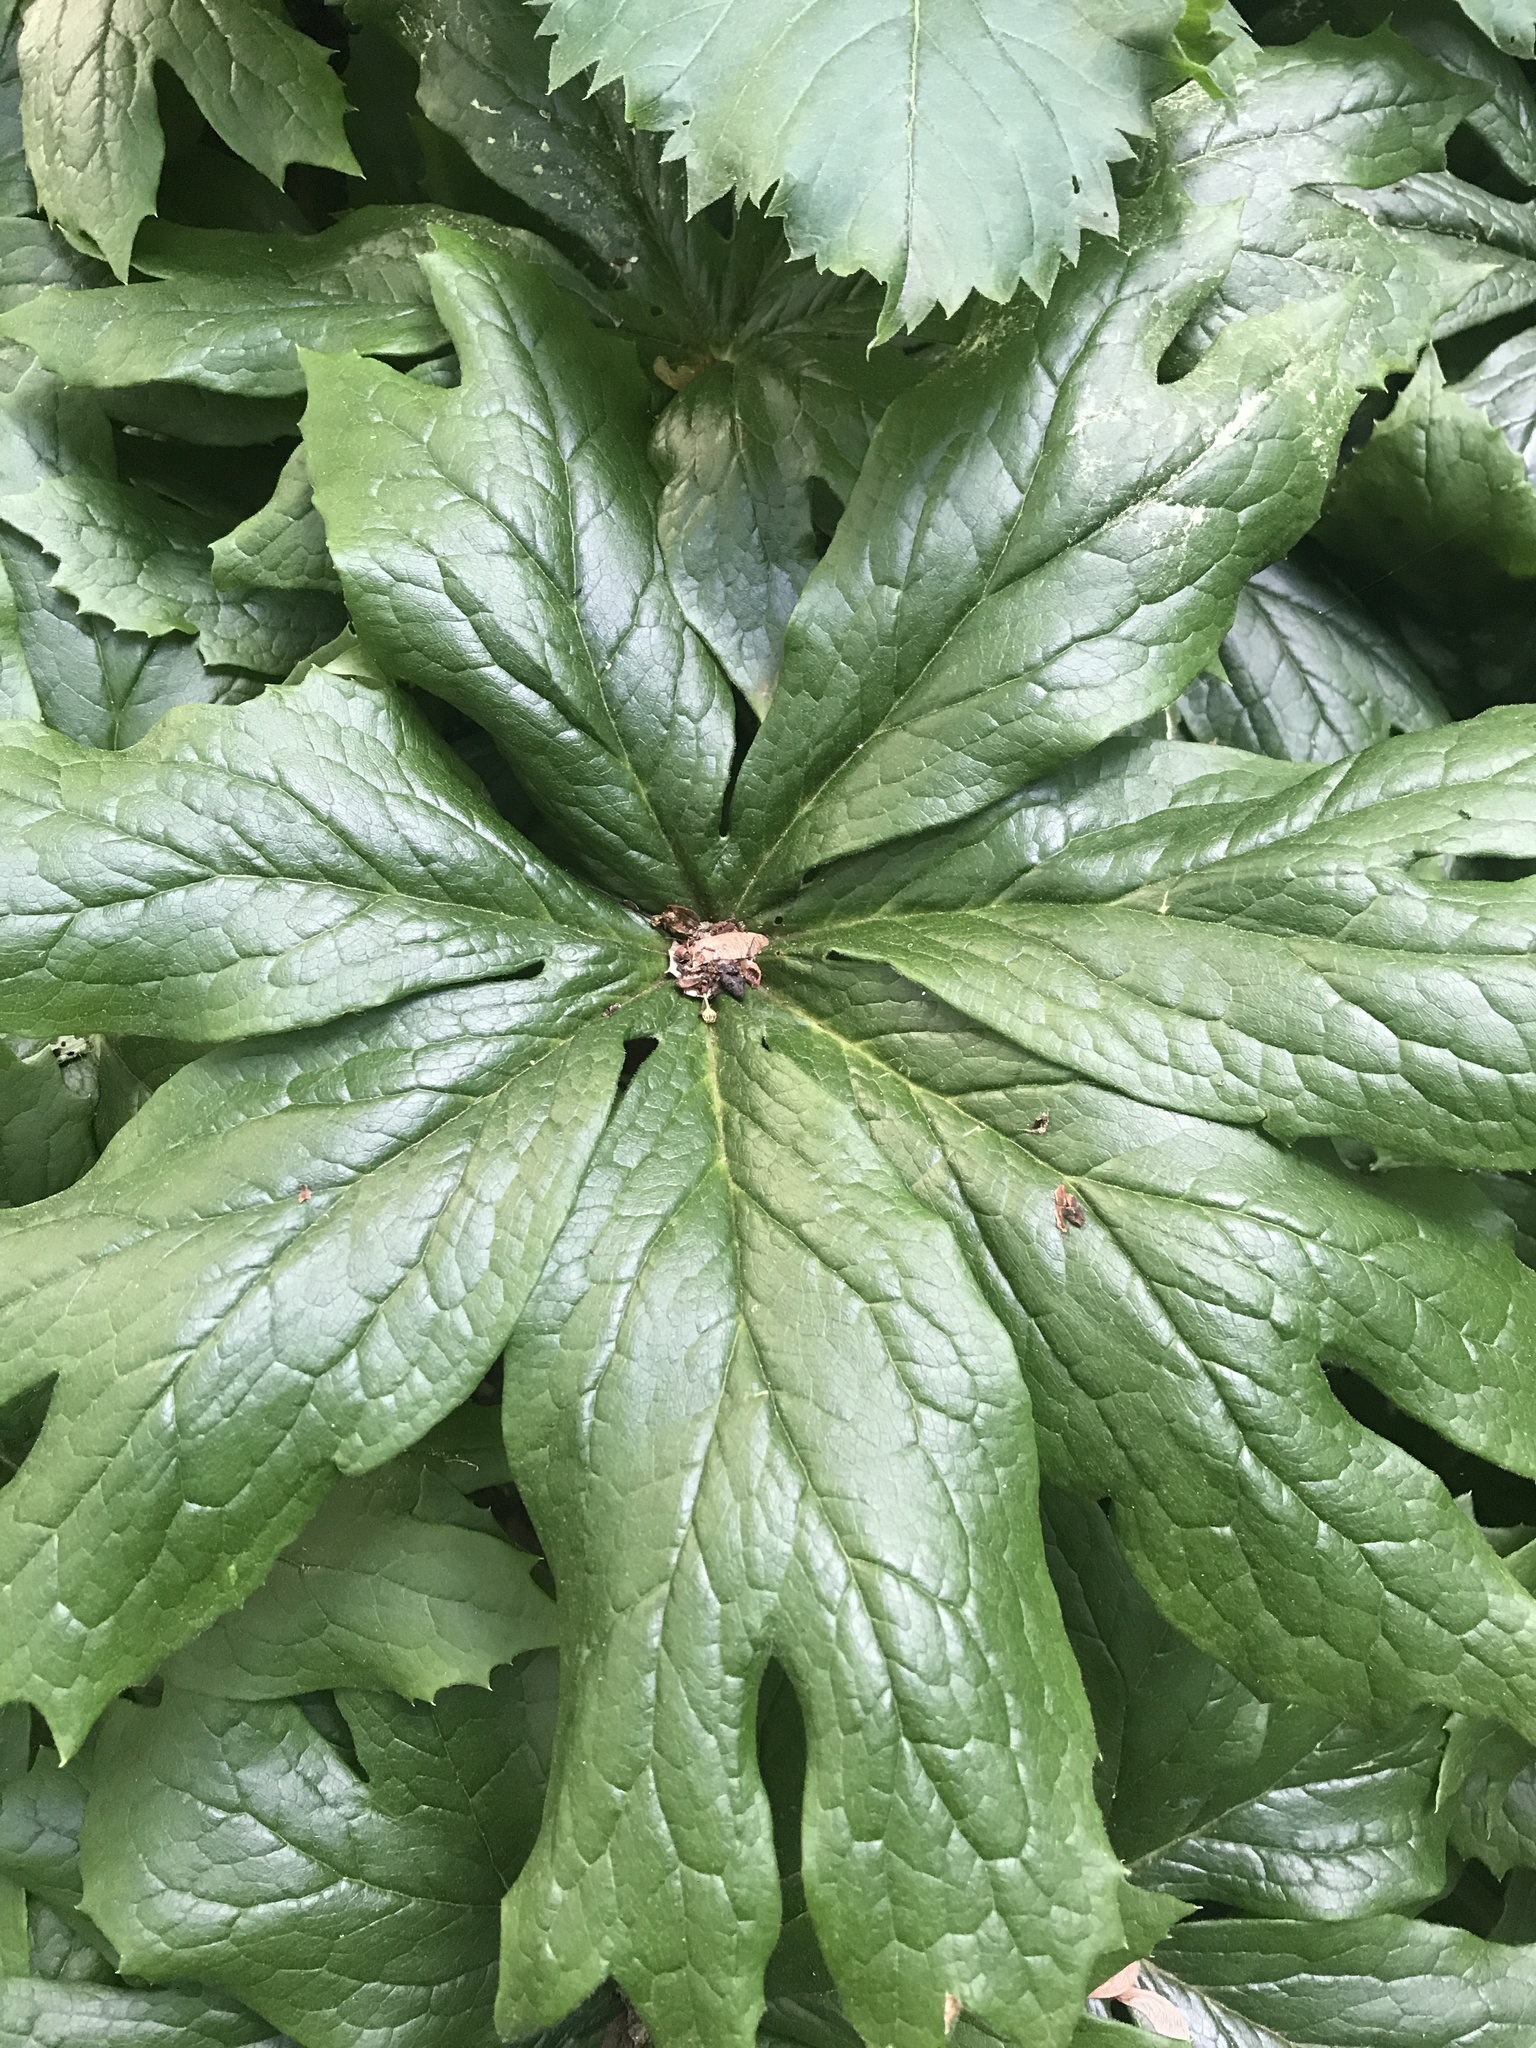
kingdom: Plantae
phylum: Tracheophyta
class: Magnoliopsida
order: Ranunculales
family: Berberidaceae
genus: Podophyllum
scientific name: Podophyllum peltatum
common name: Wild mandrake
